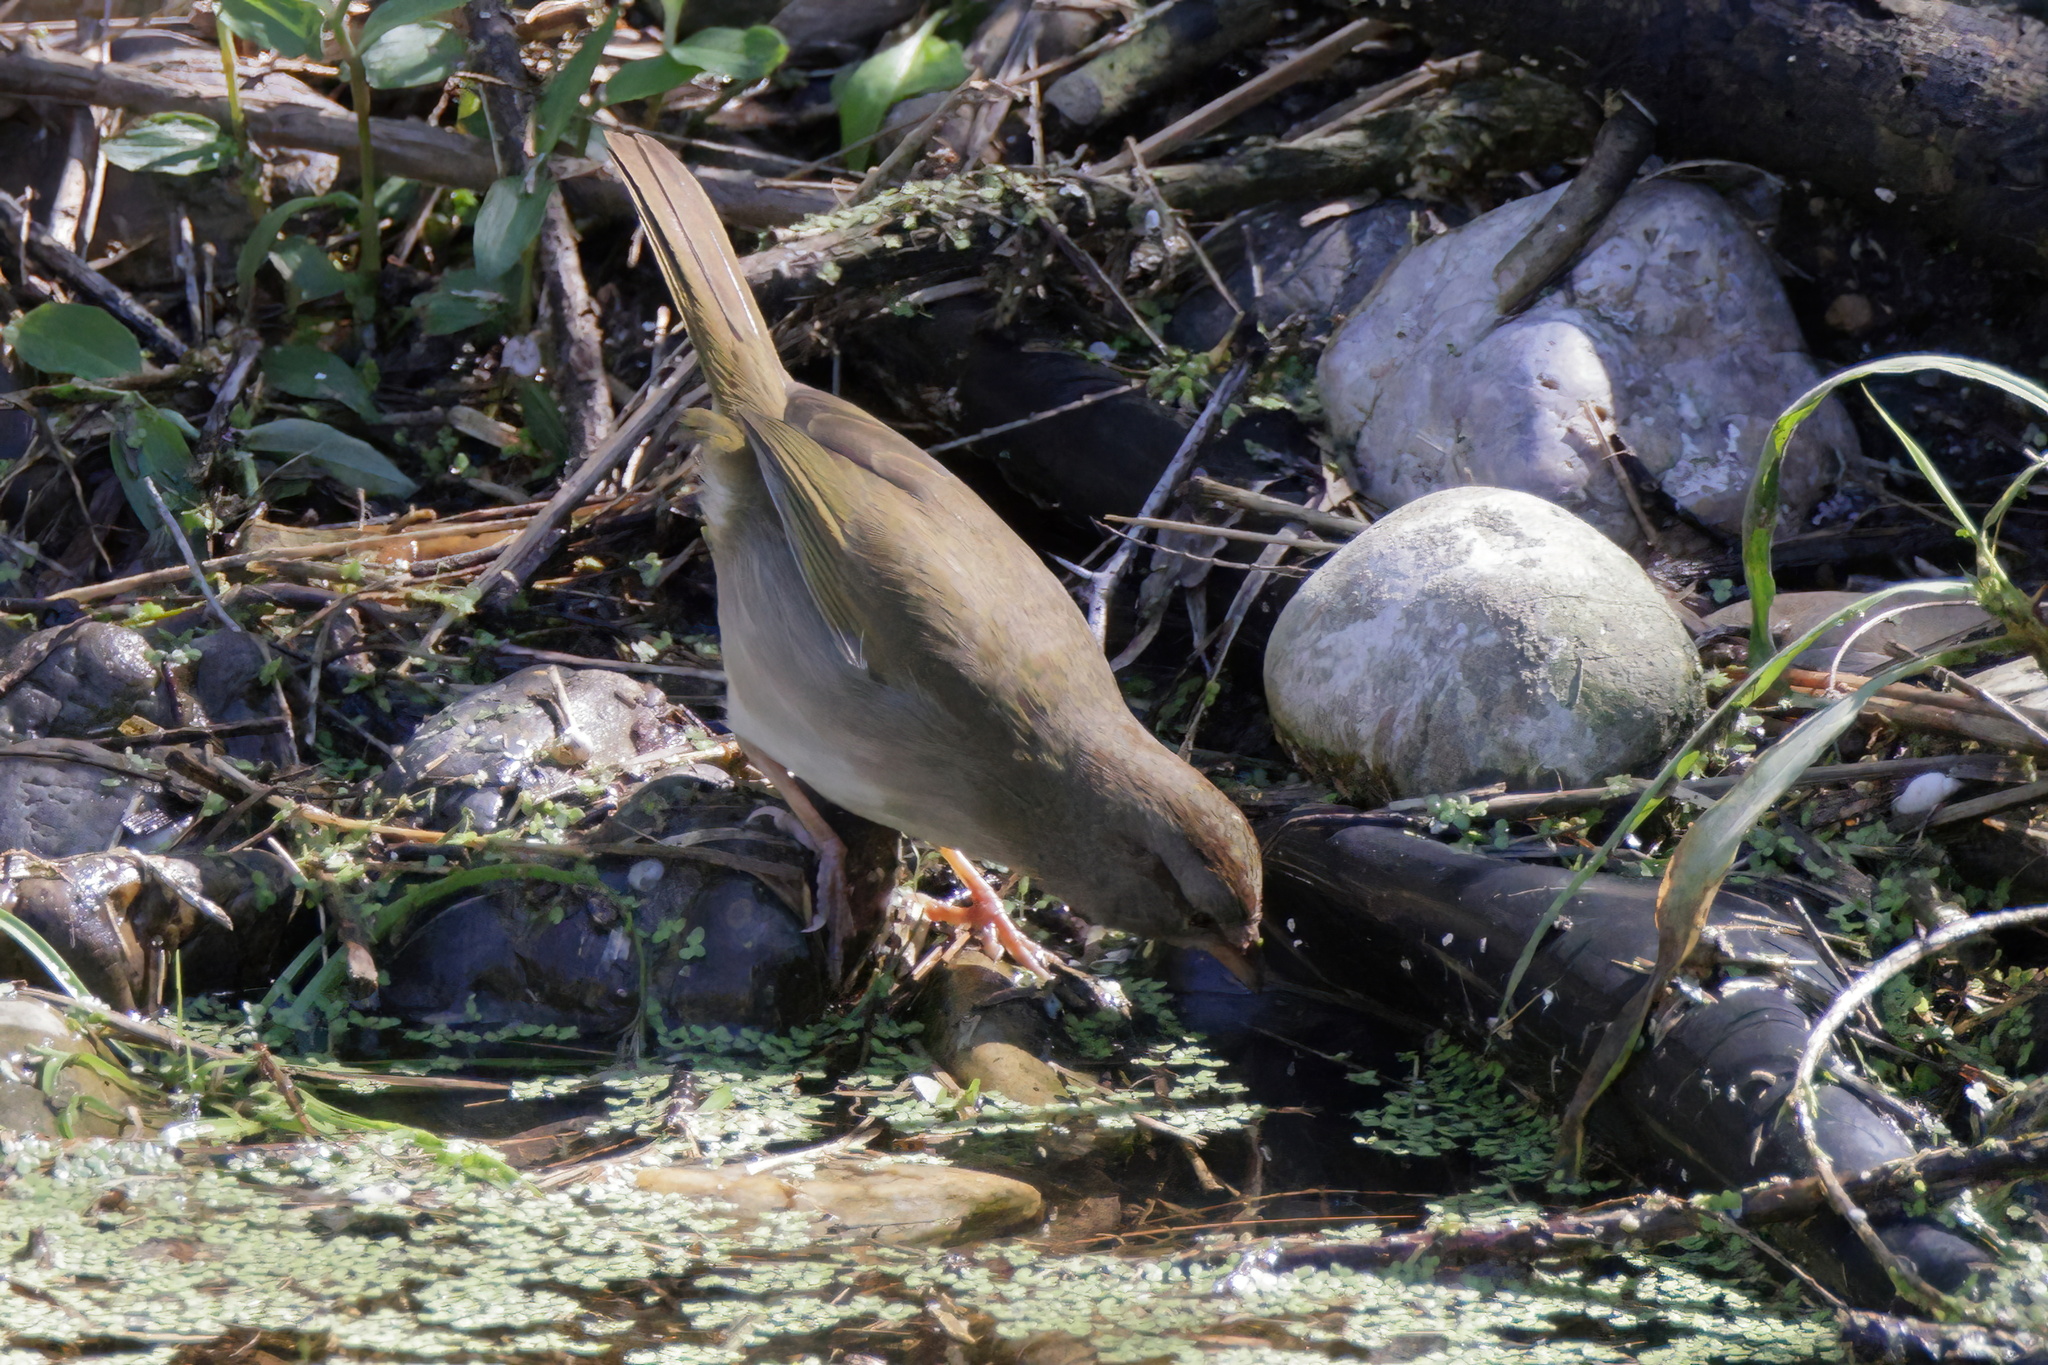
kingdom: Animalia
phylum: Chordata
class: Aves
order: Passeriformes
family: Passerellidae
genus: Arremonops
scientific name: Arremonops rufivirgatus
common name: Olive sparrow
